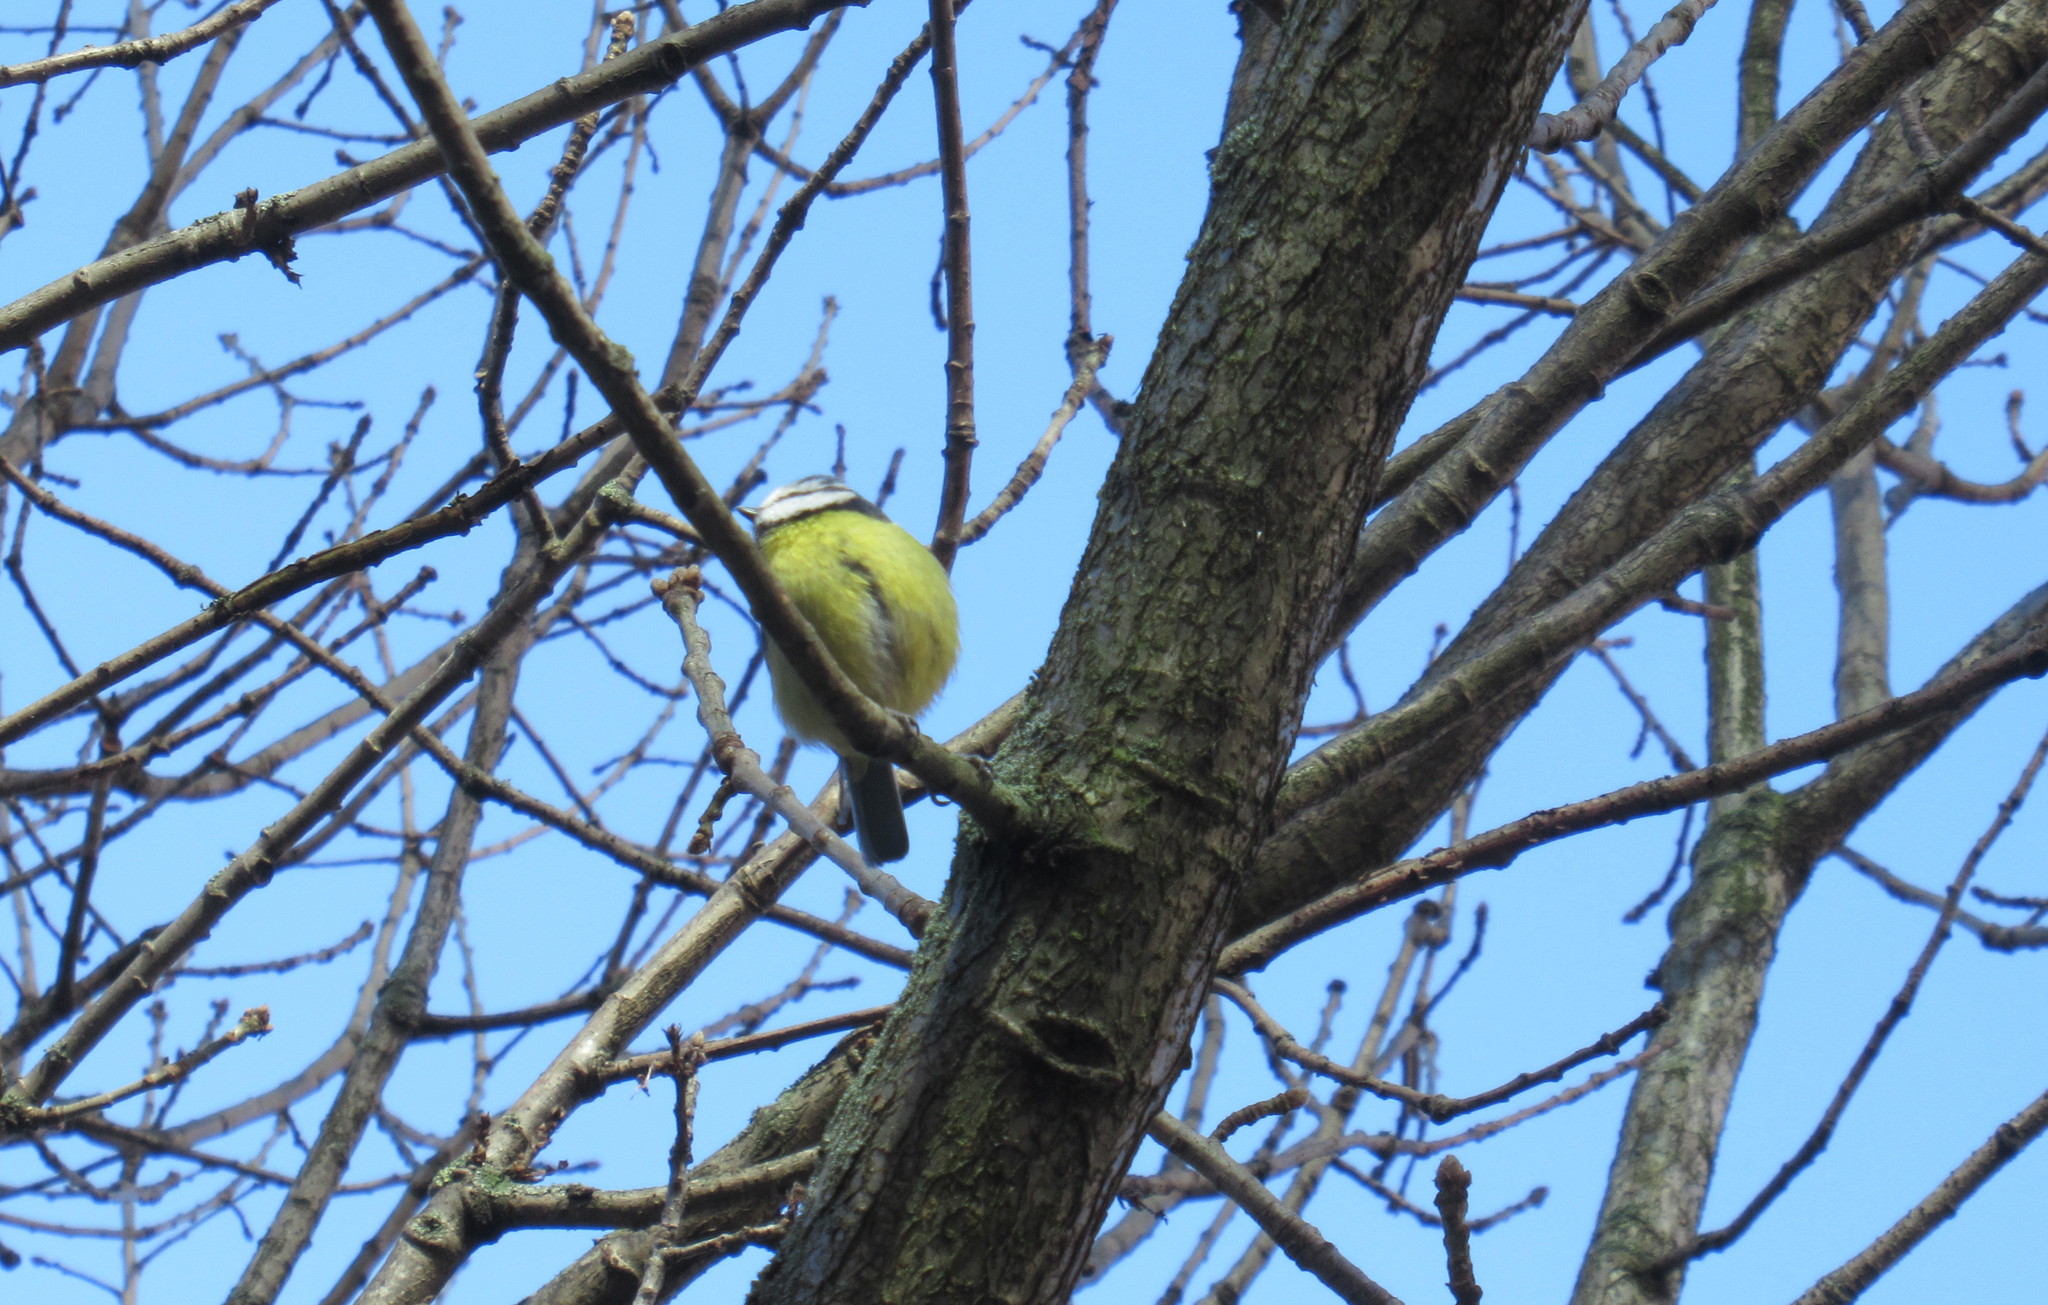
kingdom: Animalia
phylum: Chordata
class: Aves
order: Passeriformes
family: Paridae
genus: Cyanistes
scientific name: Cyanistes caeruleus
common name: Eurasian blue tit
